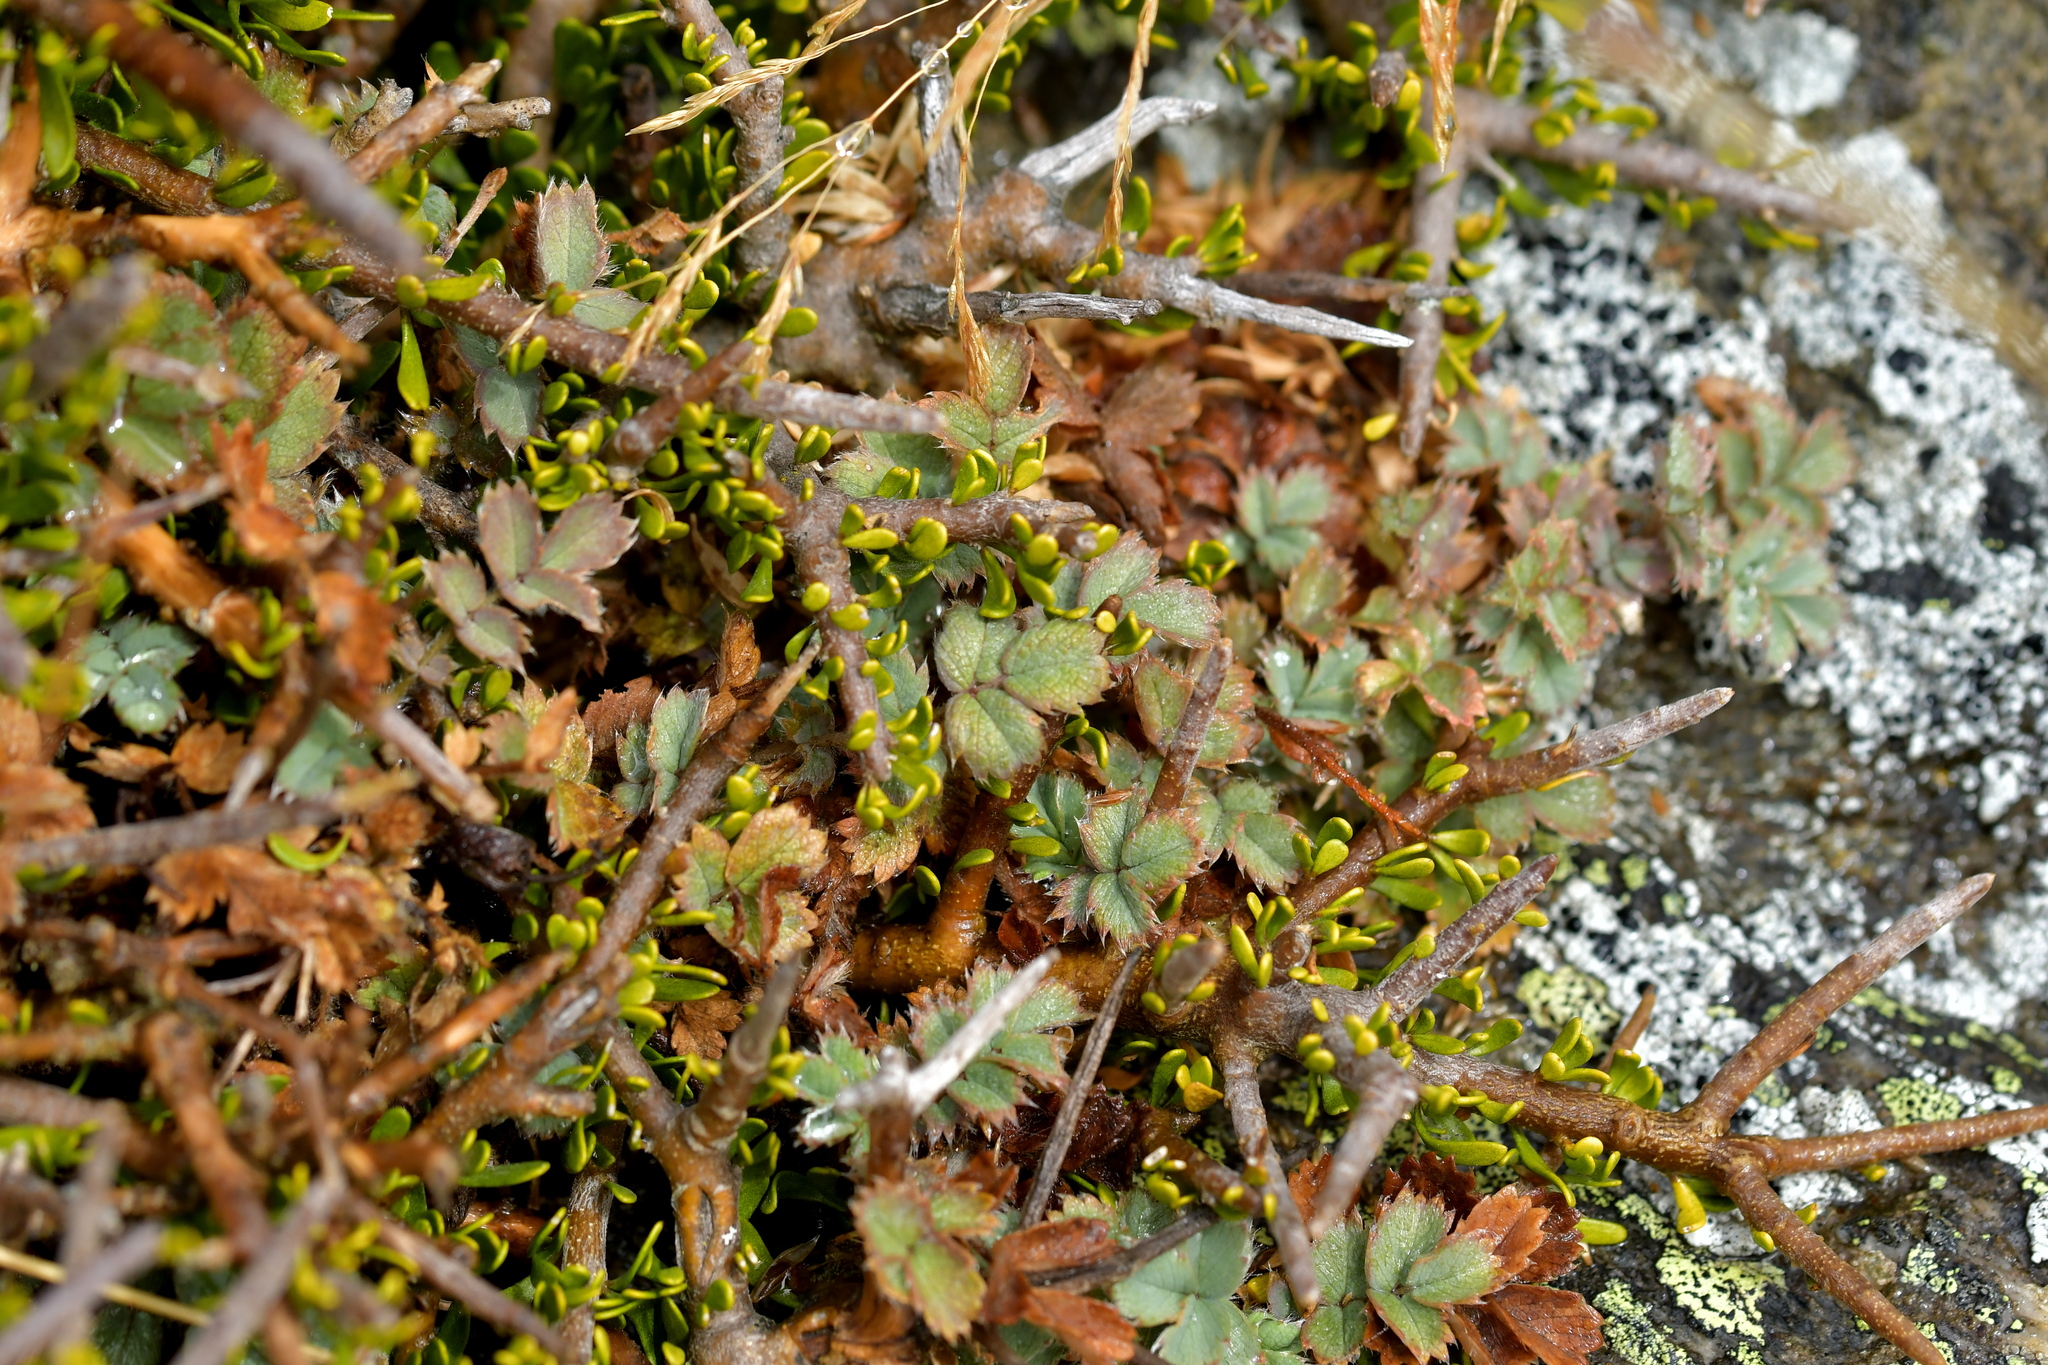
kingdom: Plantae
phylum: Tracheophyta
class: Magnoliopsida
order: Rosales
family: Rosaceae
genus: Acaena
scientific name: Acaena caesiiglauca
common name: Glaucous pirri-pirri-bur
